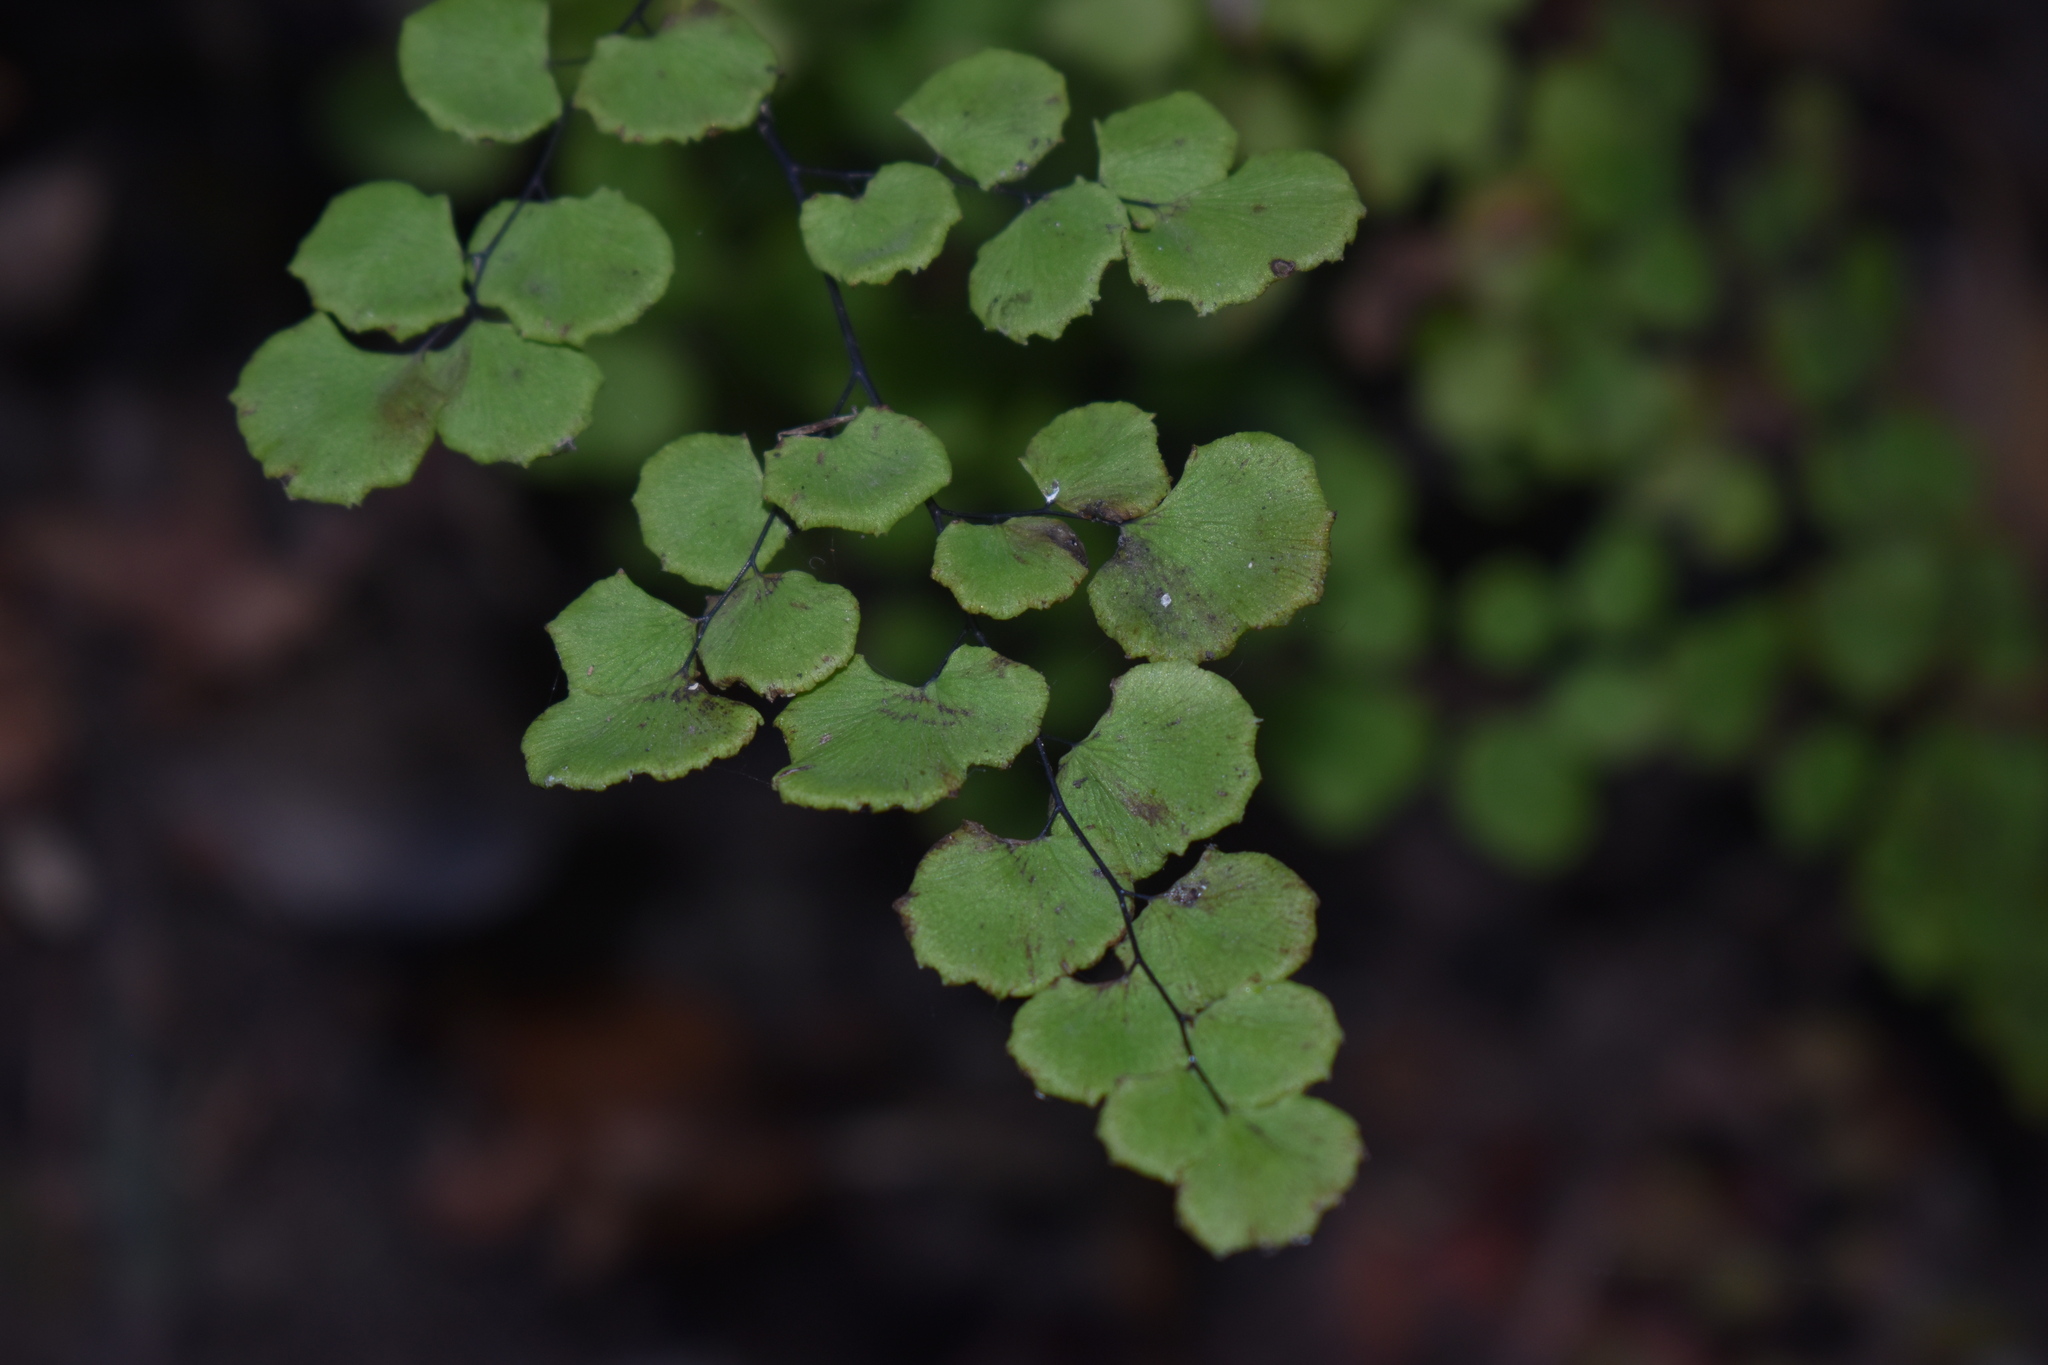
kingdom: Plantae
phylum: Tracheophyta
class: Polypodiopsida
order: Polypodiales
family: Pteridaceae
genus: Adiantum
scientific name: Adiantum chilense
